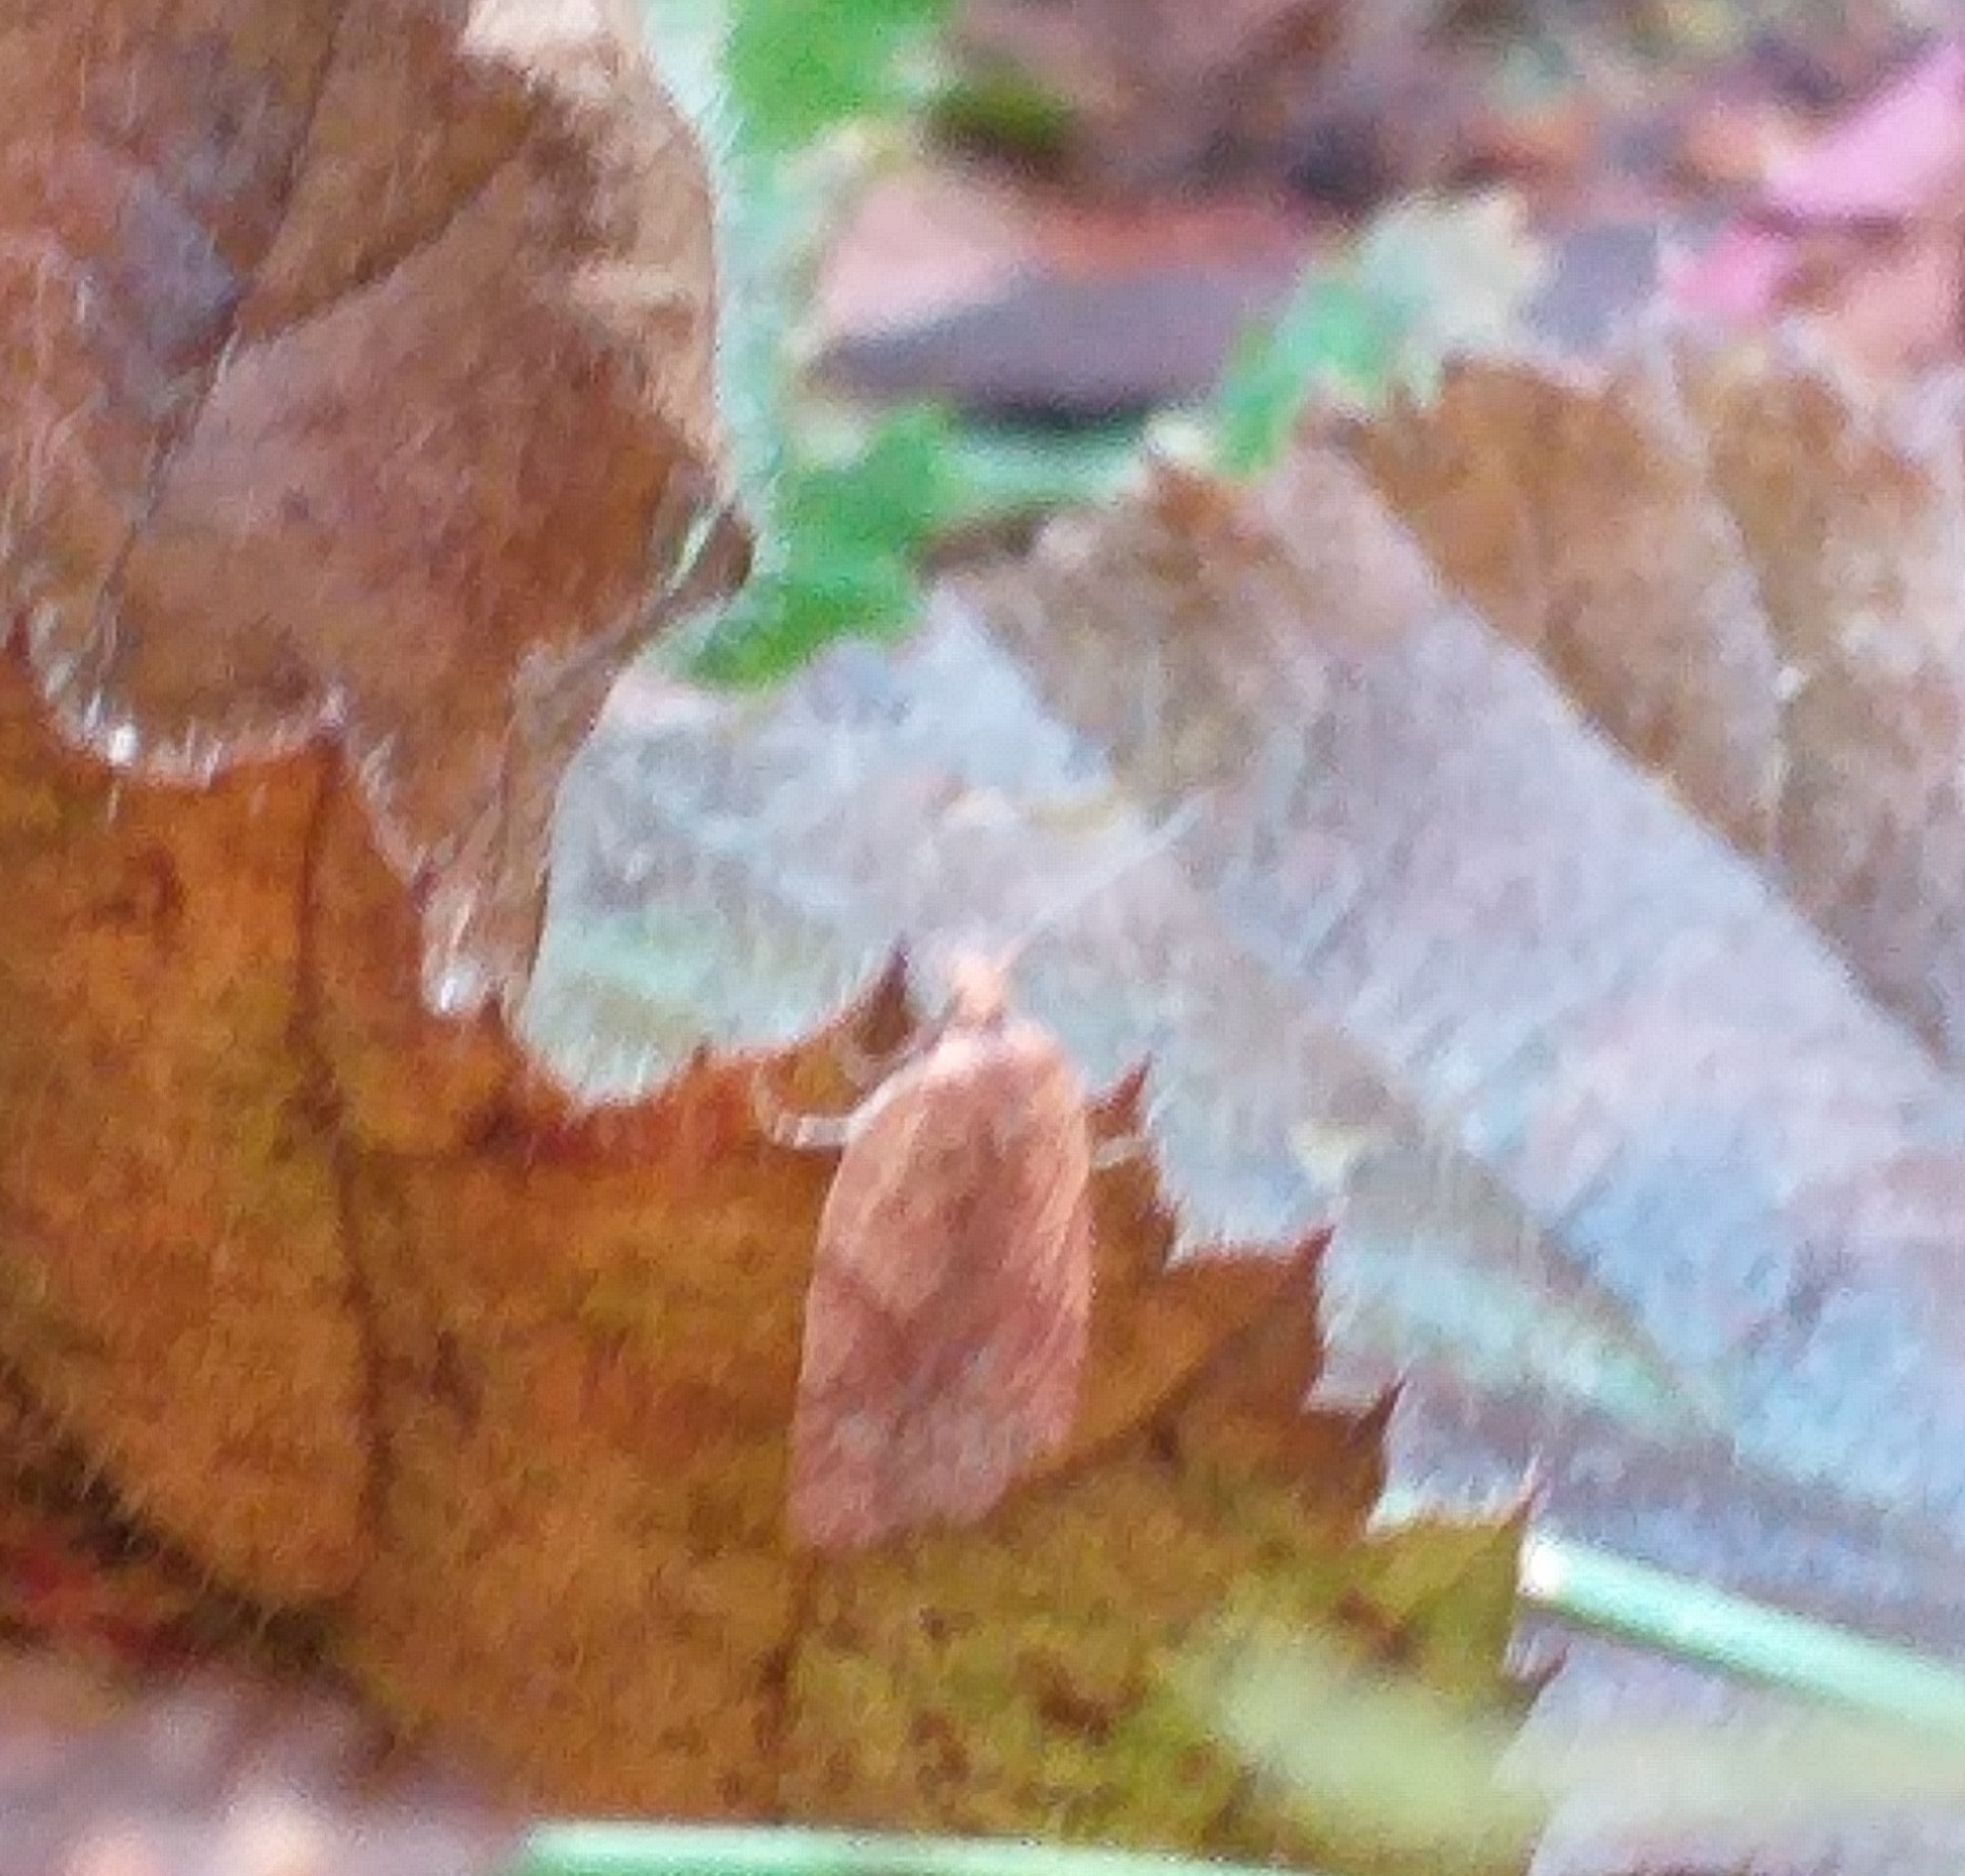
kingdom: Animalia
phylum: Arthropoda
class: Insecta
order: Lepidoptera
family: Tortricidae
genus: Acleris
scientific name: Acleris
